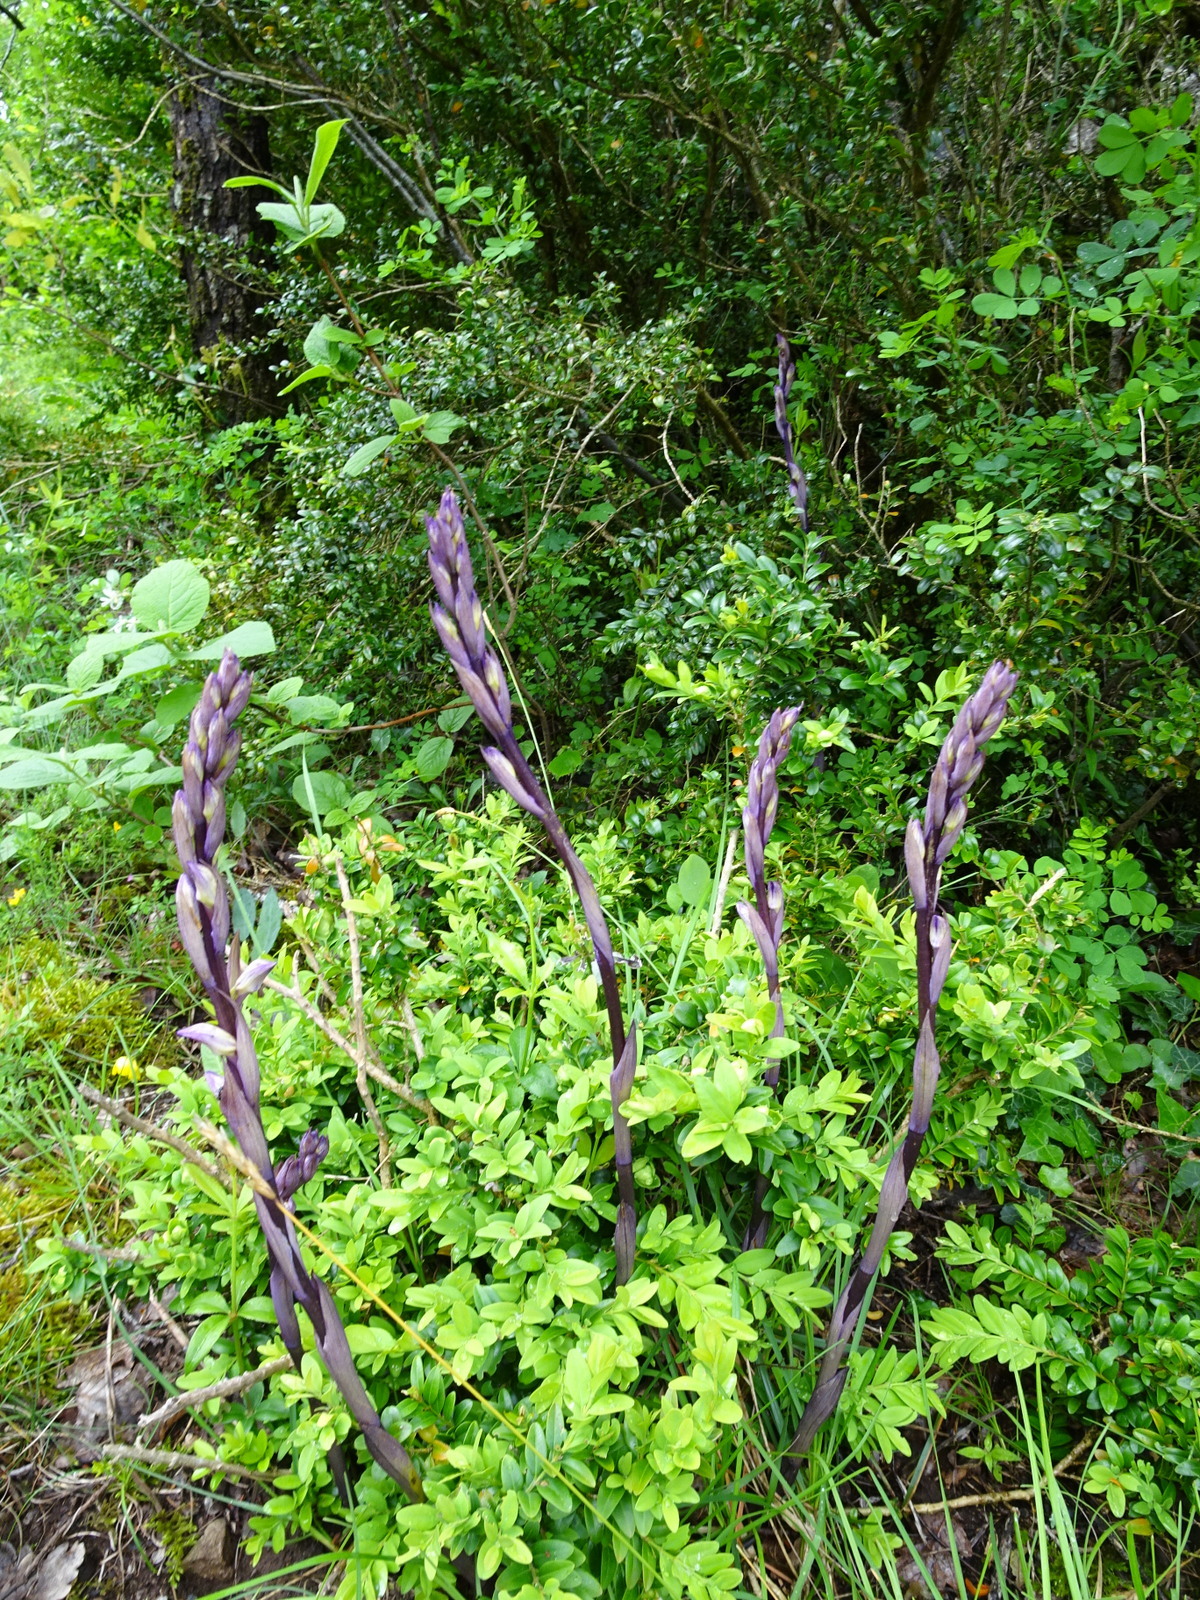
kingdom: Plantae
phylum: Tracheophyta
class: Liliopsida
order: Asparagales
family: Orchidaceae
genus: Limodorum
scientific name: Limodorum abortivum
